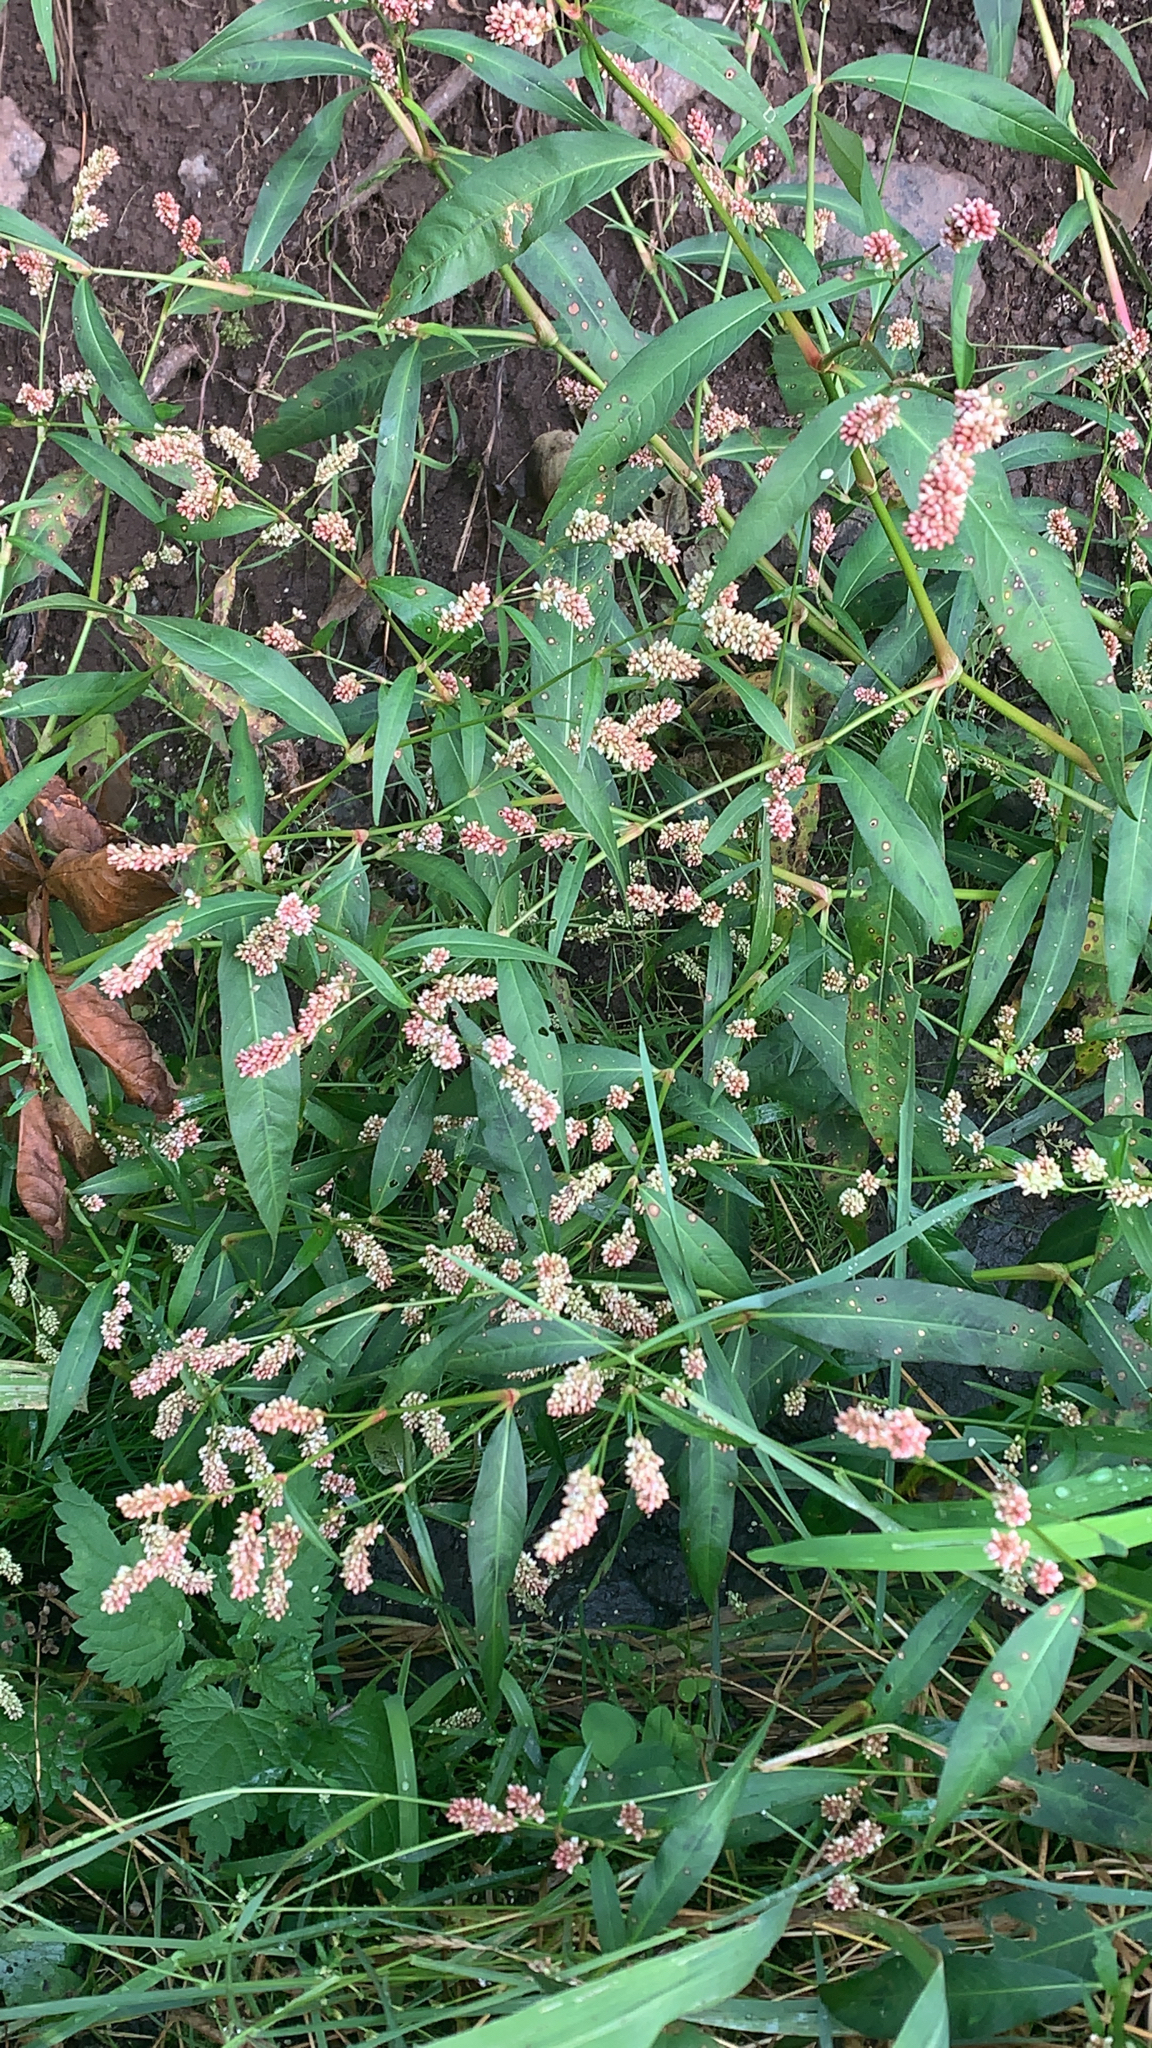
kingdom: Plantae
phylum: Tracheophyta
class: Magnoliopsida
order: Caryophyllales
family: Polygonaceae
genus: Persicaria
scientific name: Persicaria maculosa
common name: Redshank
